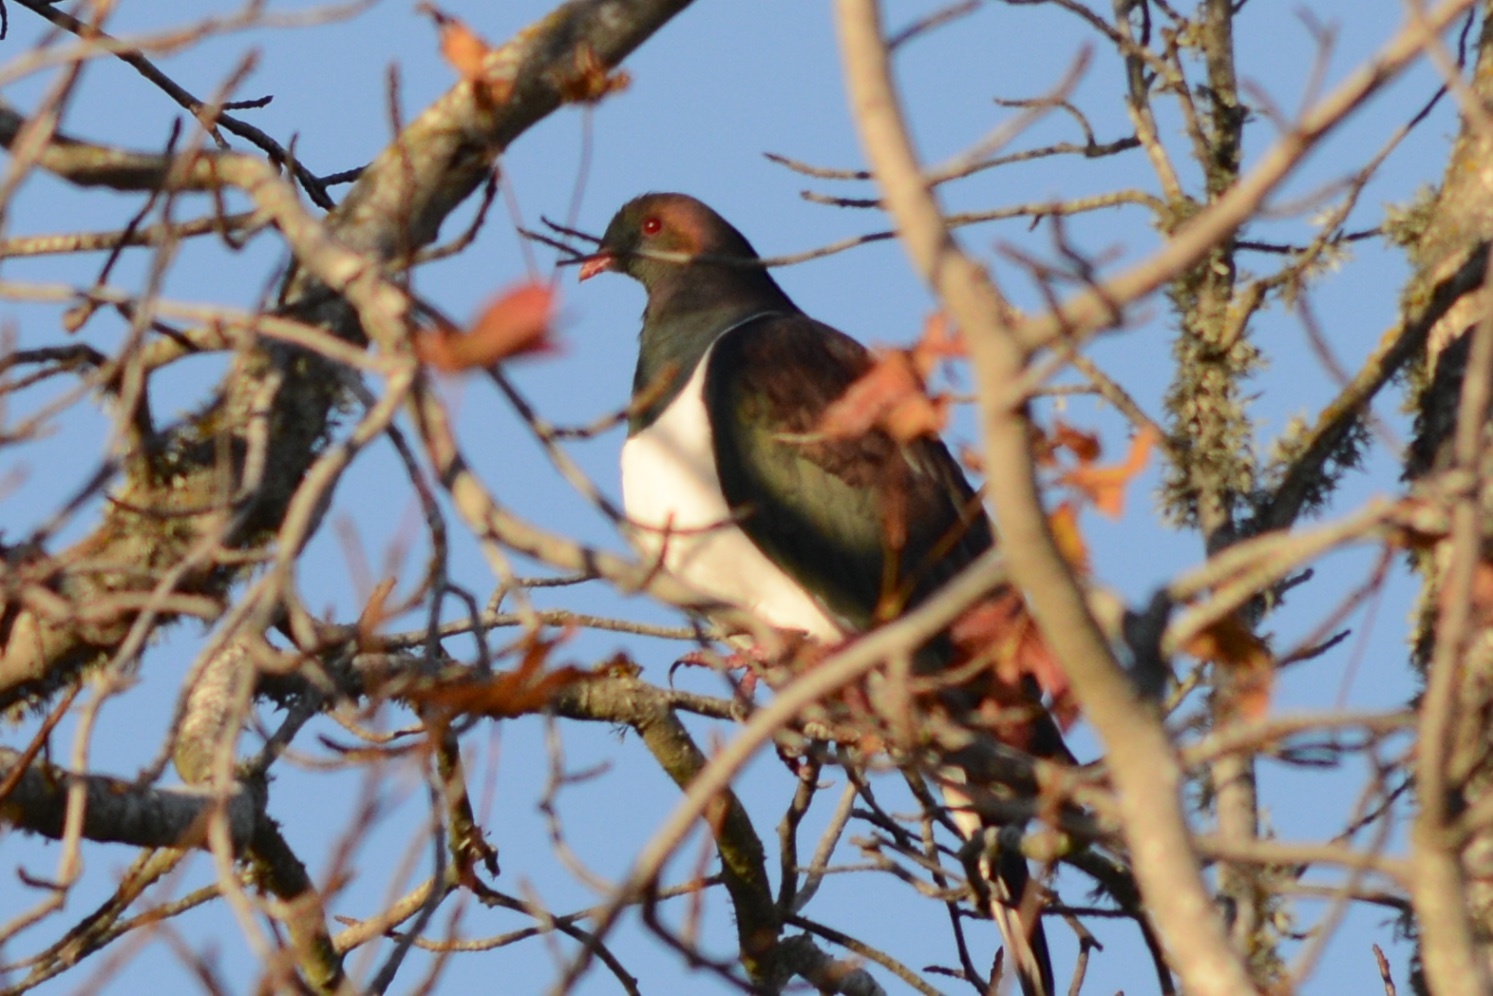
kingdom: Animalia
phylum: Chordata
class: Aves
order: Columbiformes
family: Columbidae
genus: Hemiphaga
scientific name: Hemiphaga novaeseelandiae
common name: New zealand pigeon
